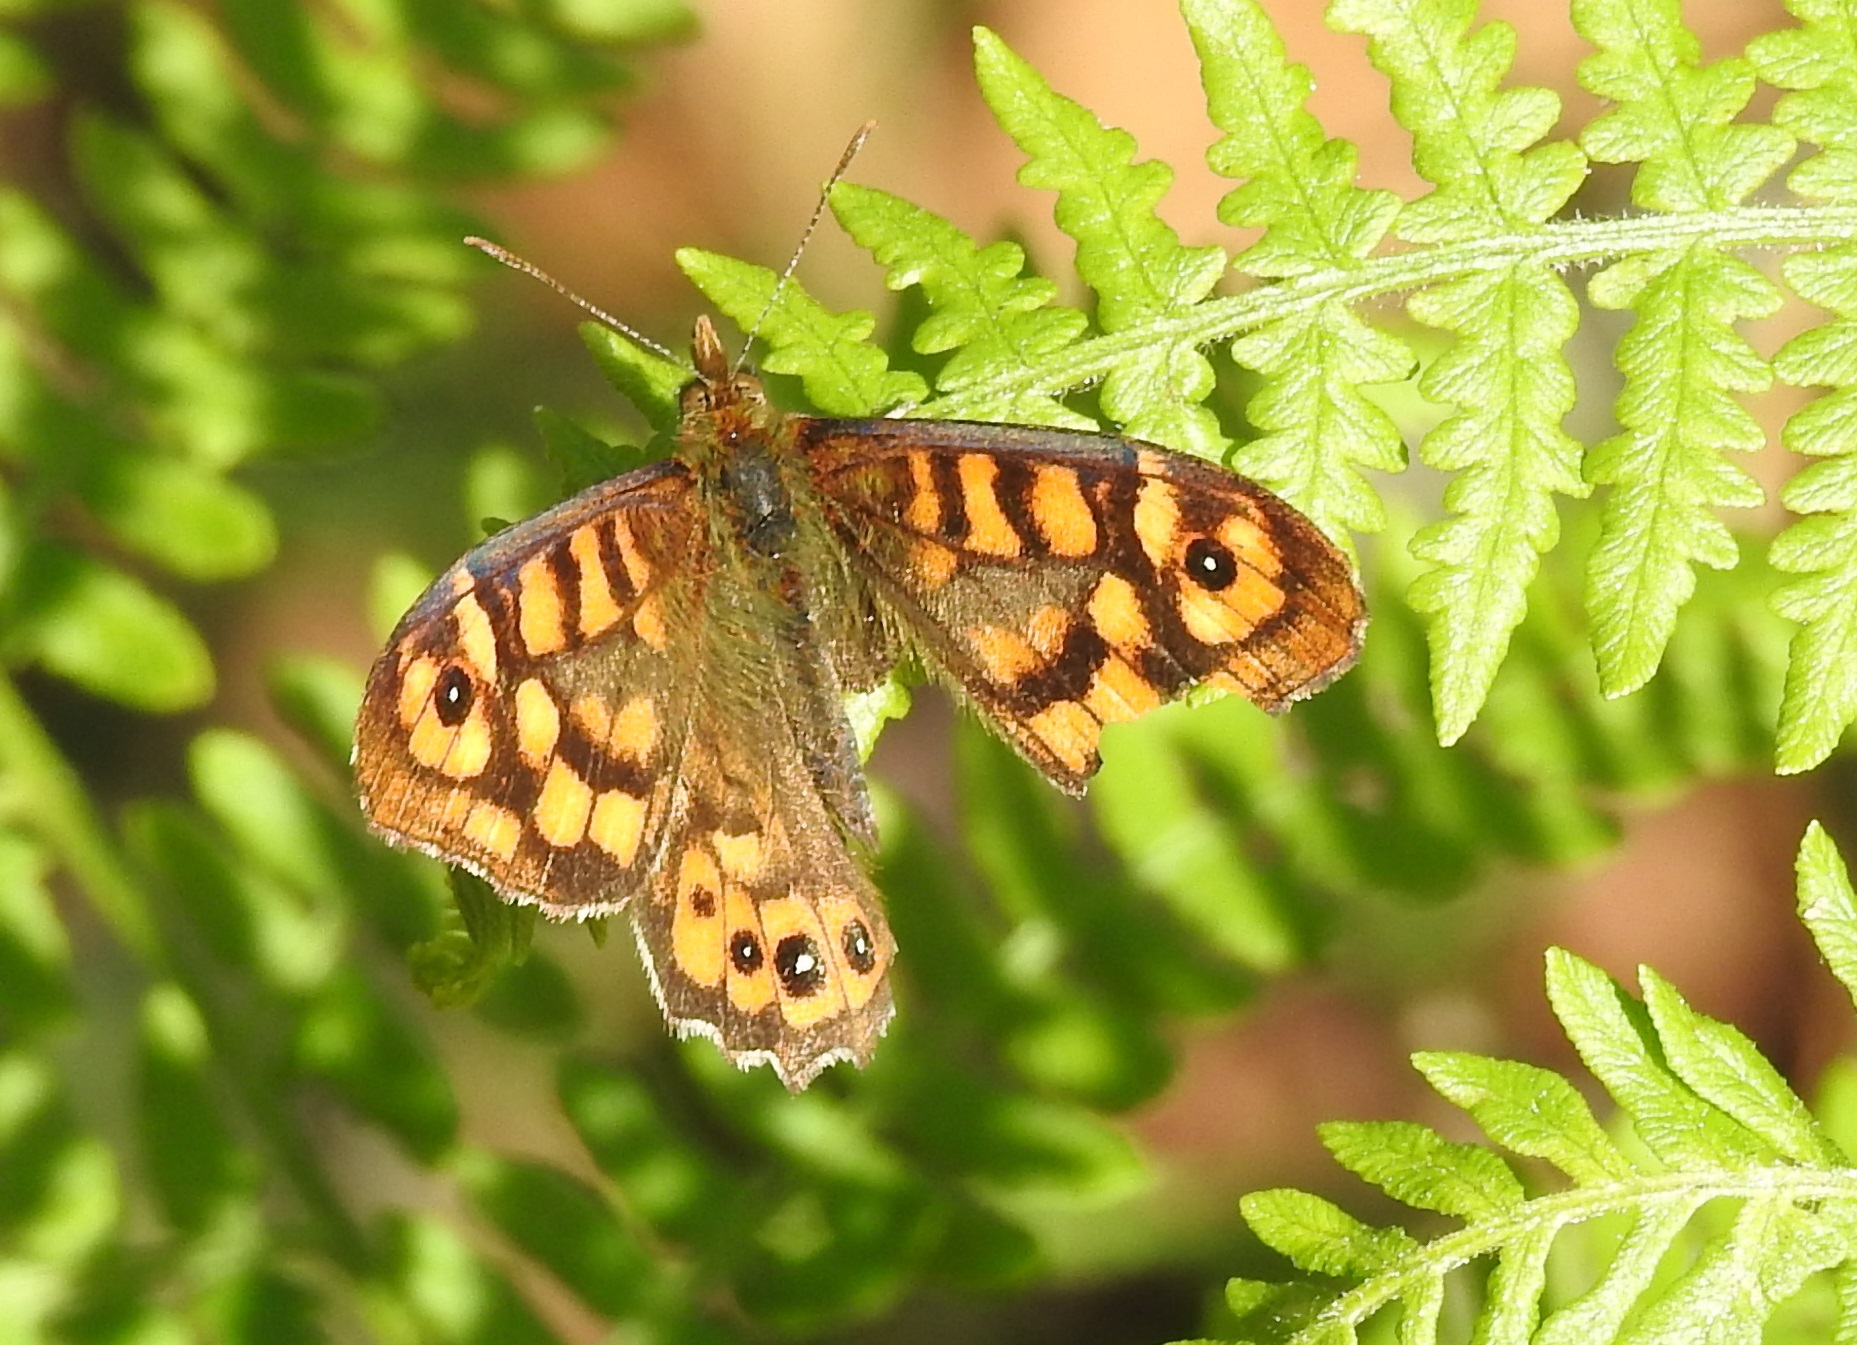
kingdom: Animalia
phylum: Arthropoda
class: Insecta
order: Lepidoptera
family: Nymphalidae
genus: Pararge
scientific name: Pararge aegeria
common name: Speckled wood
